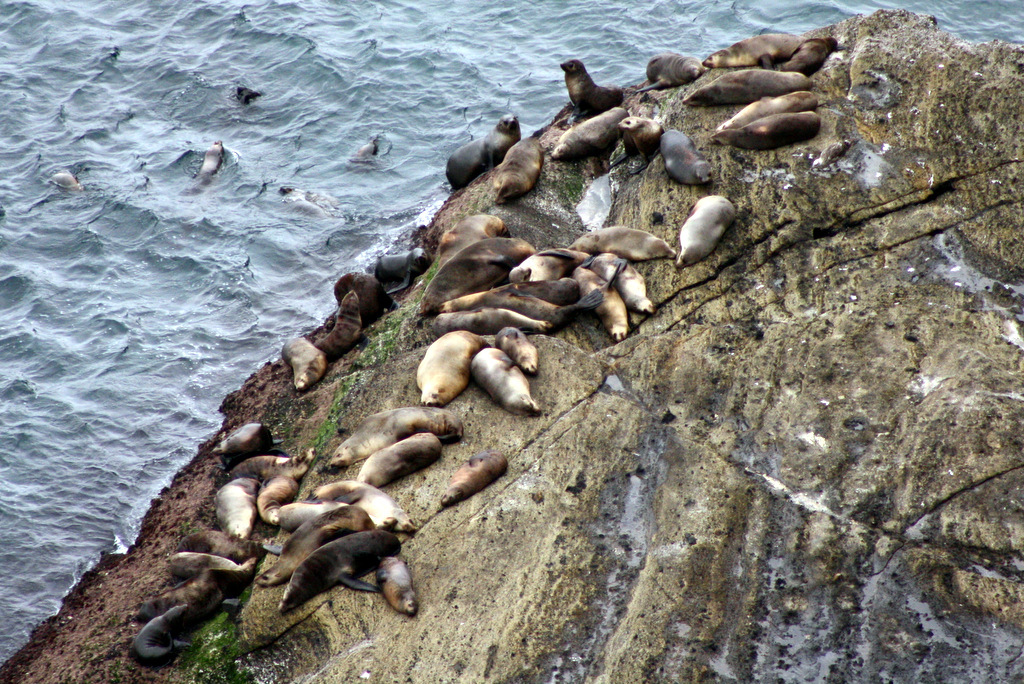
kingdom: Animalia
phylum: Chordata
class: Mammalia
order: Carnivora
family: Otariidae
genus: Arctocephalus
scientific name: Arctocephalus forsteri
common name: New zealand fur seal
